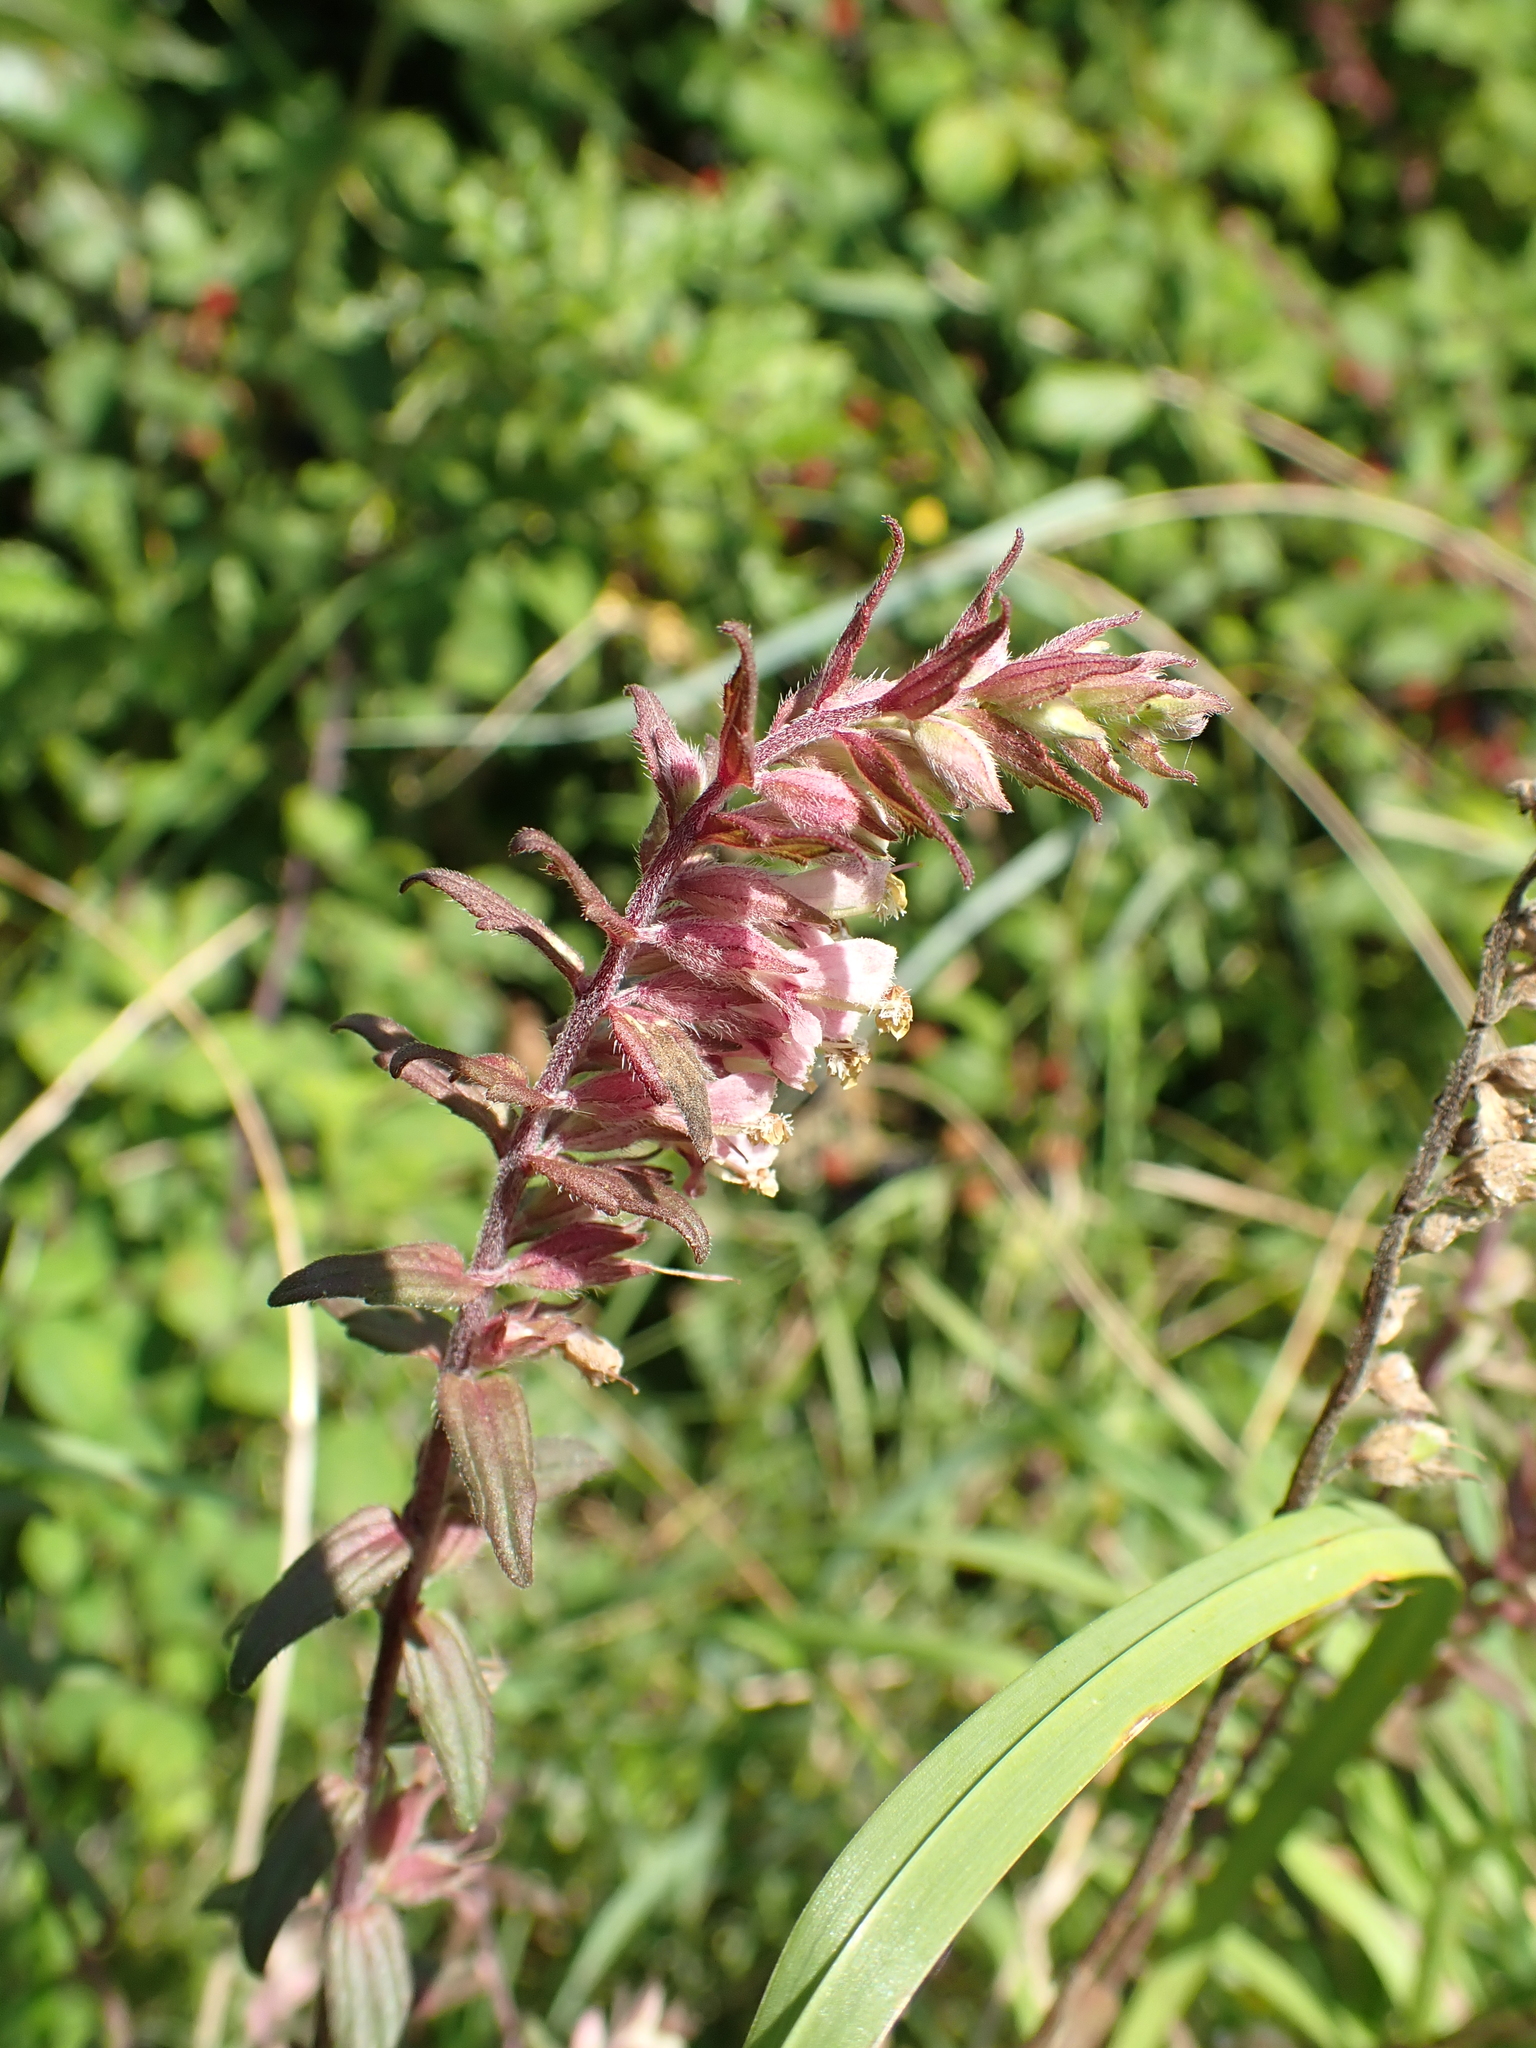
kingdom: Plantae
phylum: Tracheophyta
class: Magnoliopsida
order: Lamiales
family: Orobanchaceae
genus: Odontites
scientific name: Odontites vulgaris
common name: Broomrape
